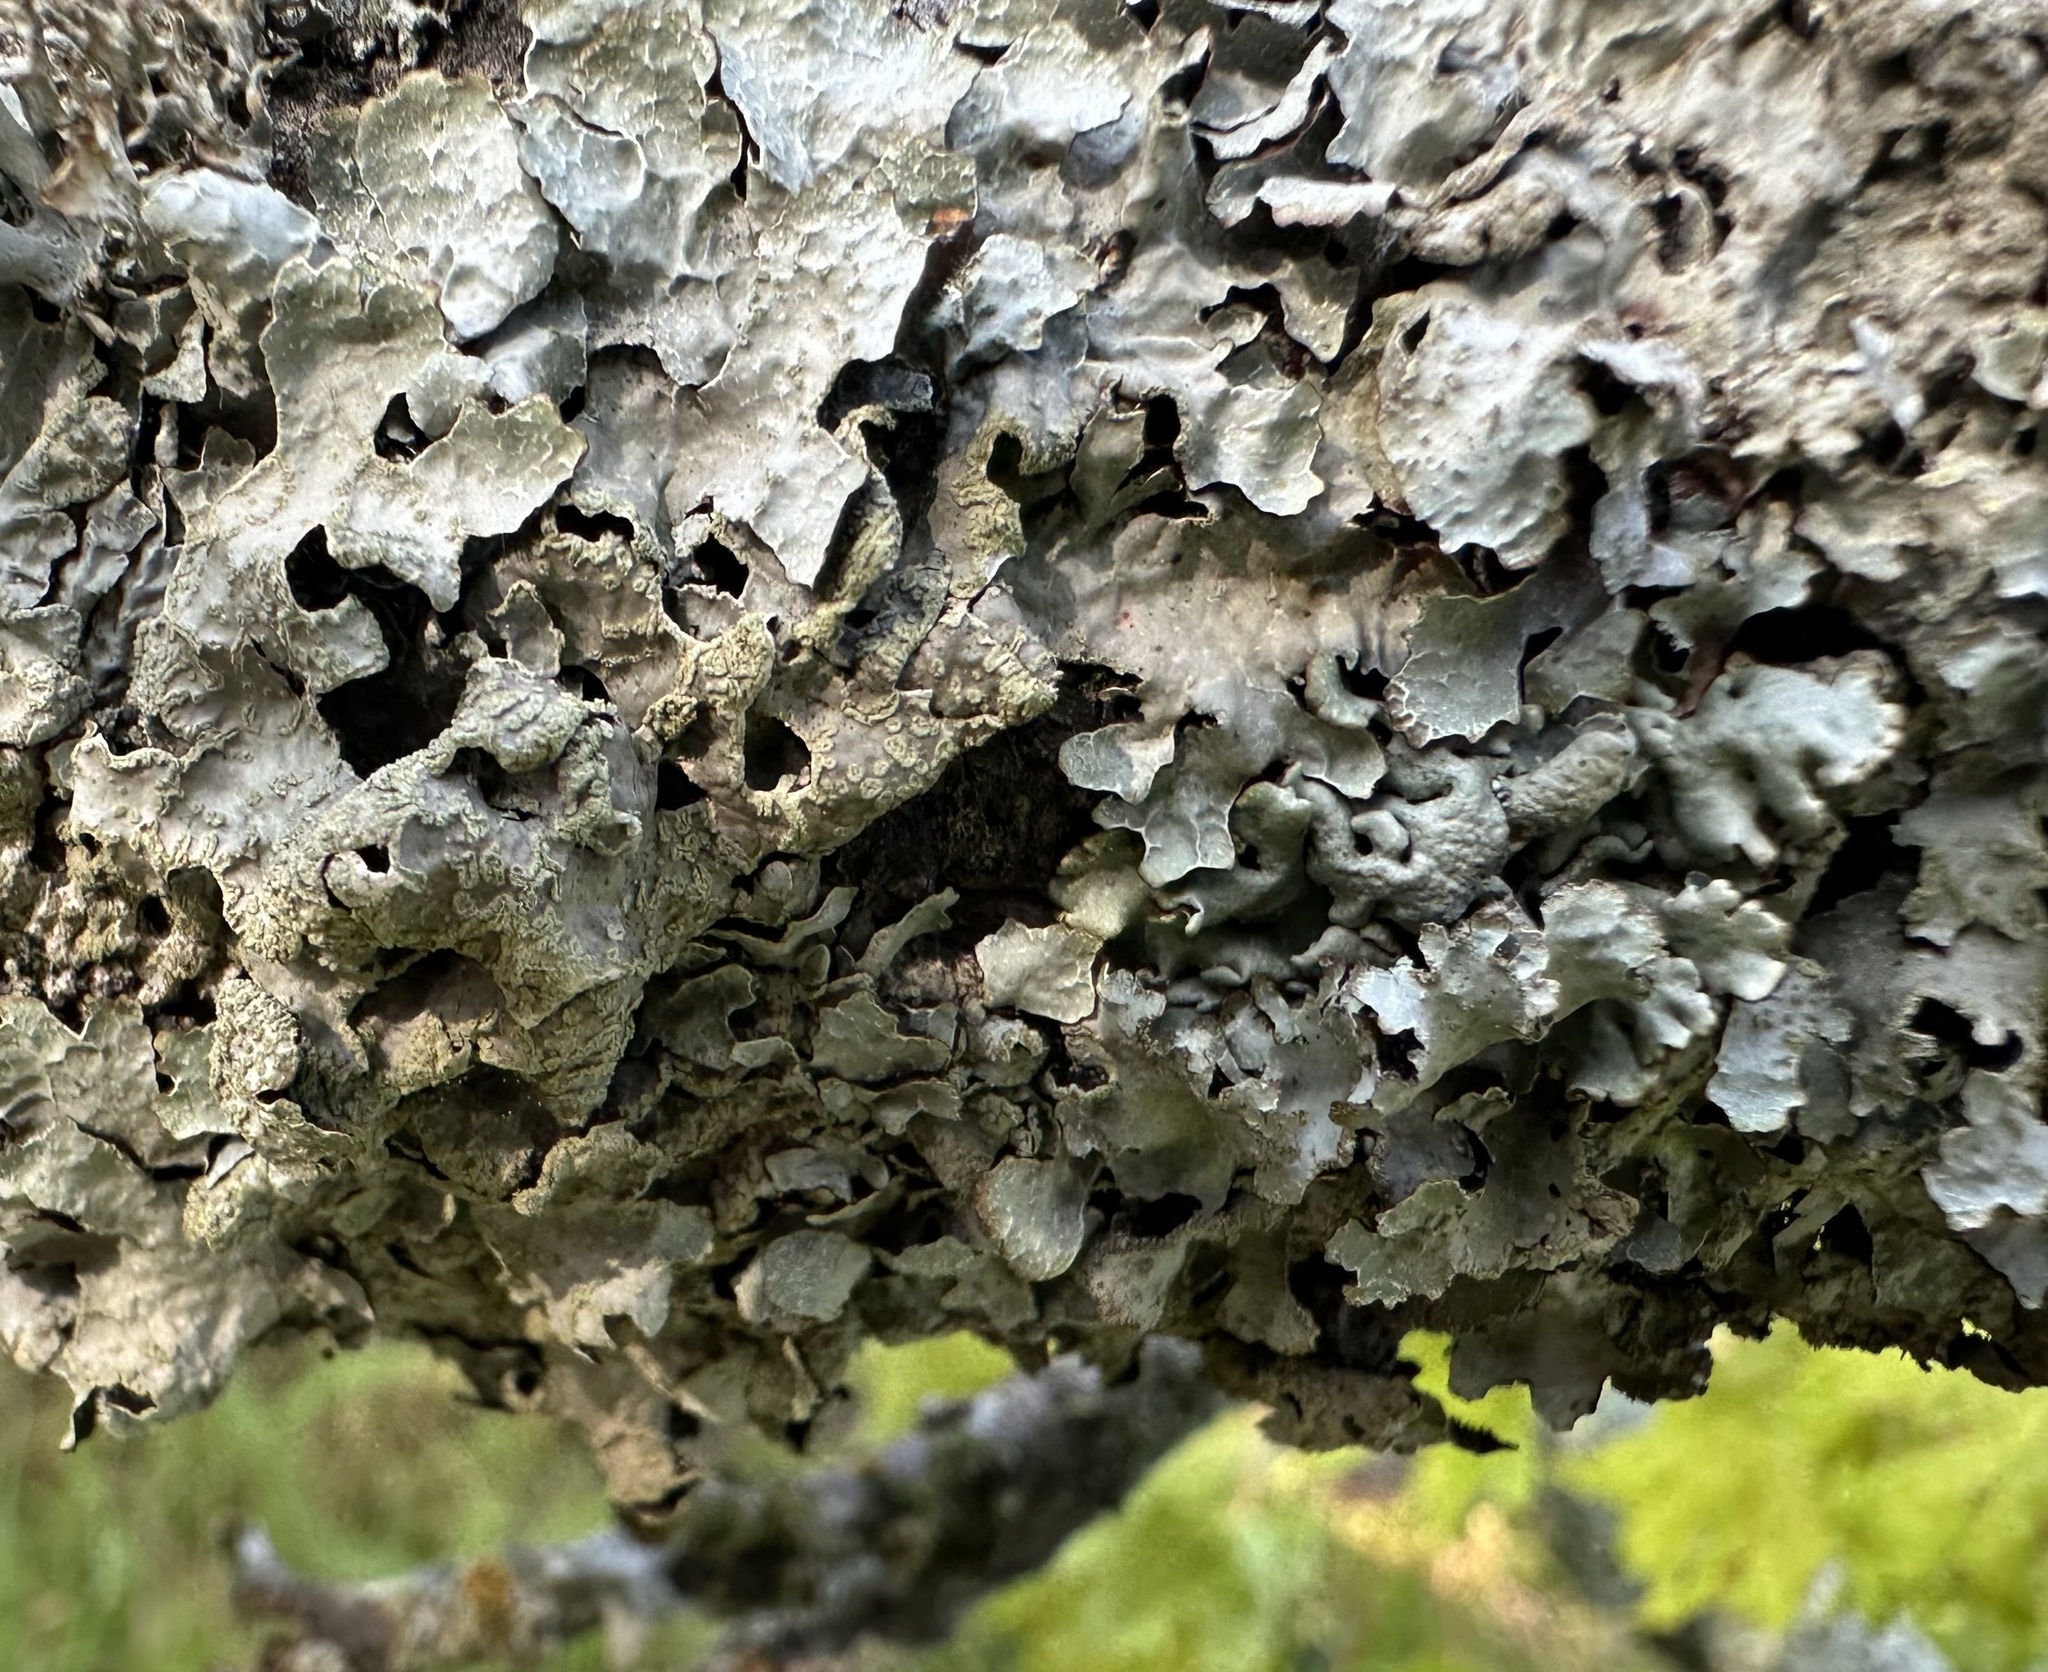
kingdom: Fungi
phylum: Ascomycota
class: Lecanoromycetes
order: Lecanorales
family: Parmeliaceae
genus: Parmelia
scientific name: Parmelia sulcata
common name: Netted shield lichen
